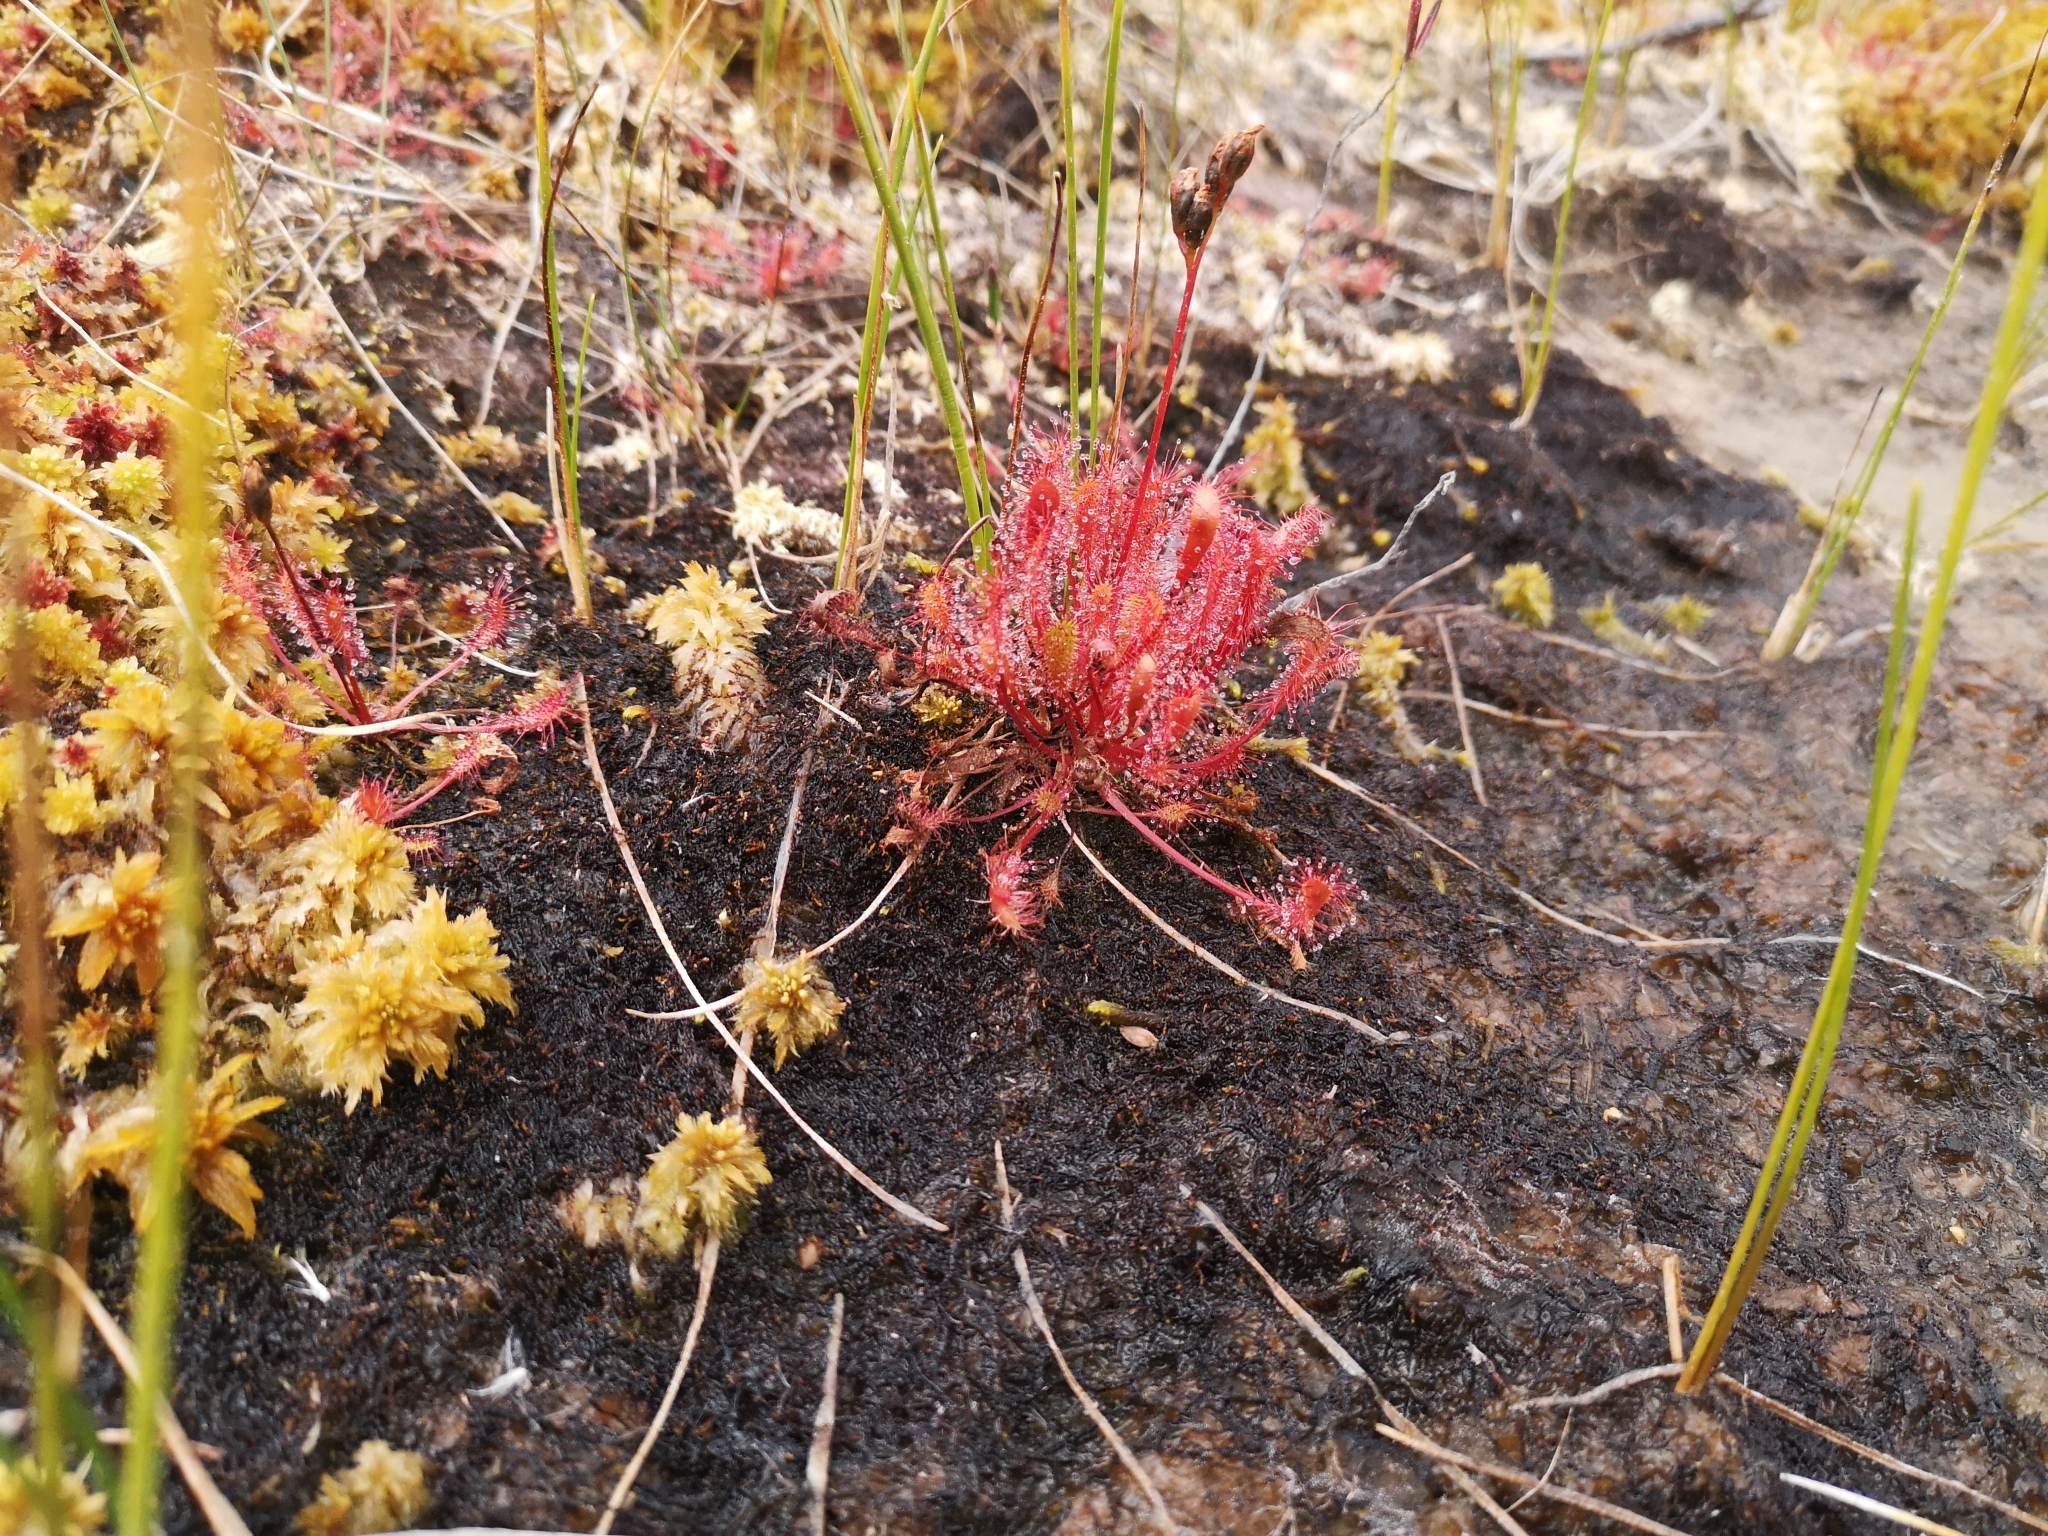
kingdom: Plantae
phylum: Tracheophyta
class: Magnoliopsida
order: Caryophyllales
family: Droseraceae
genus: Drosera
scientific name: Drosera anglica
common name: Great sundew
